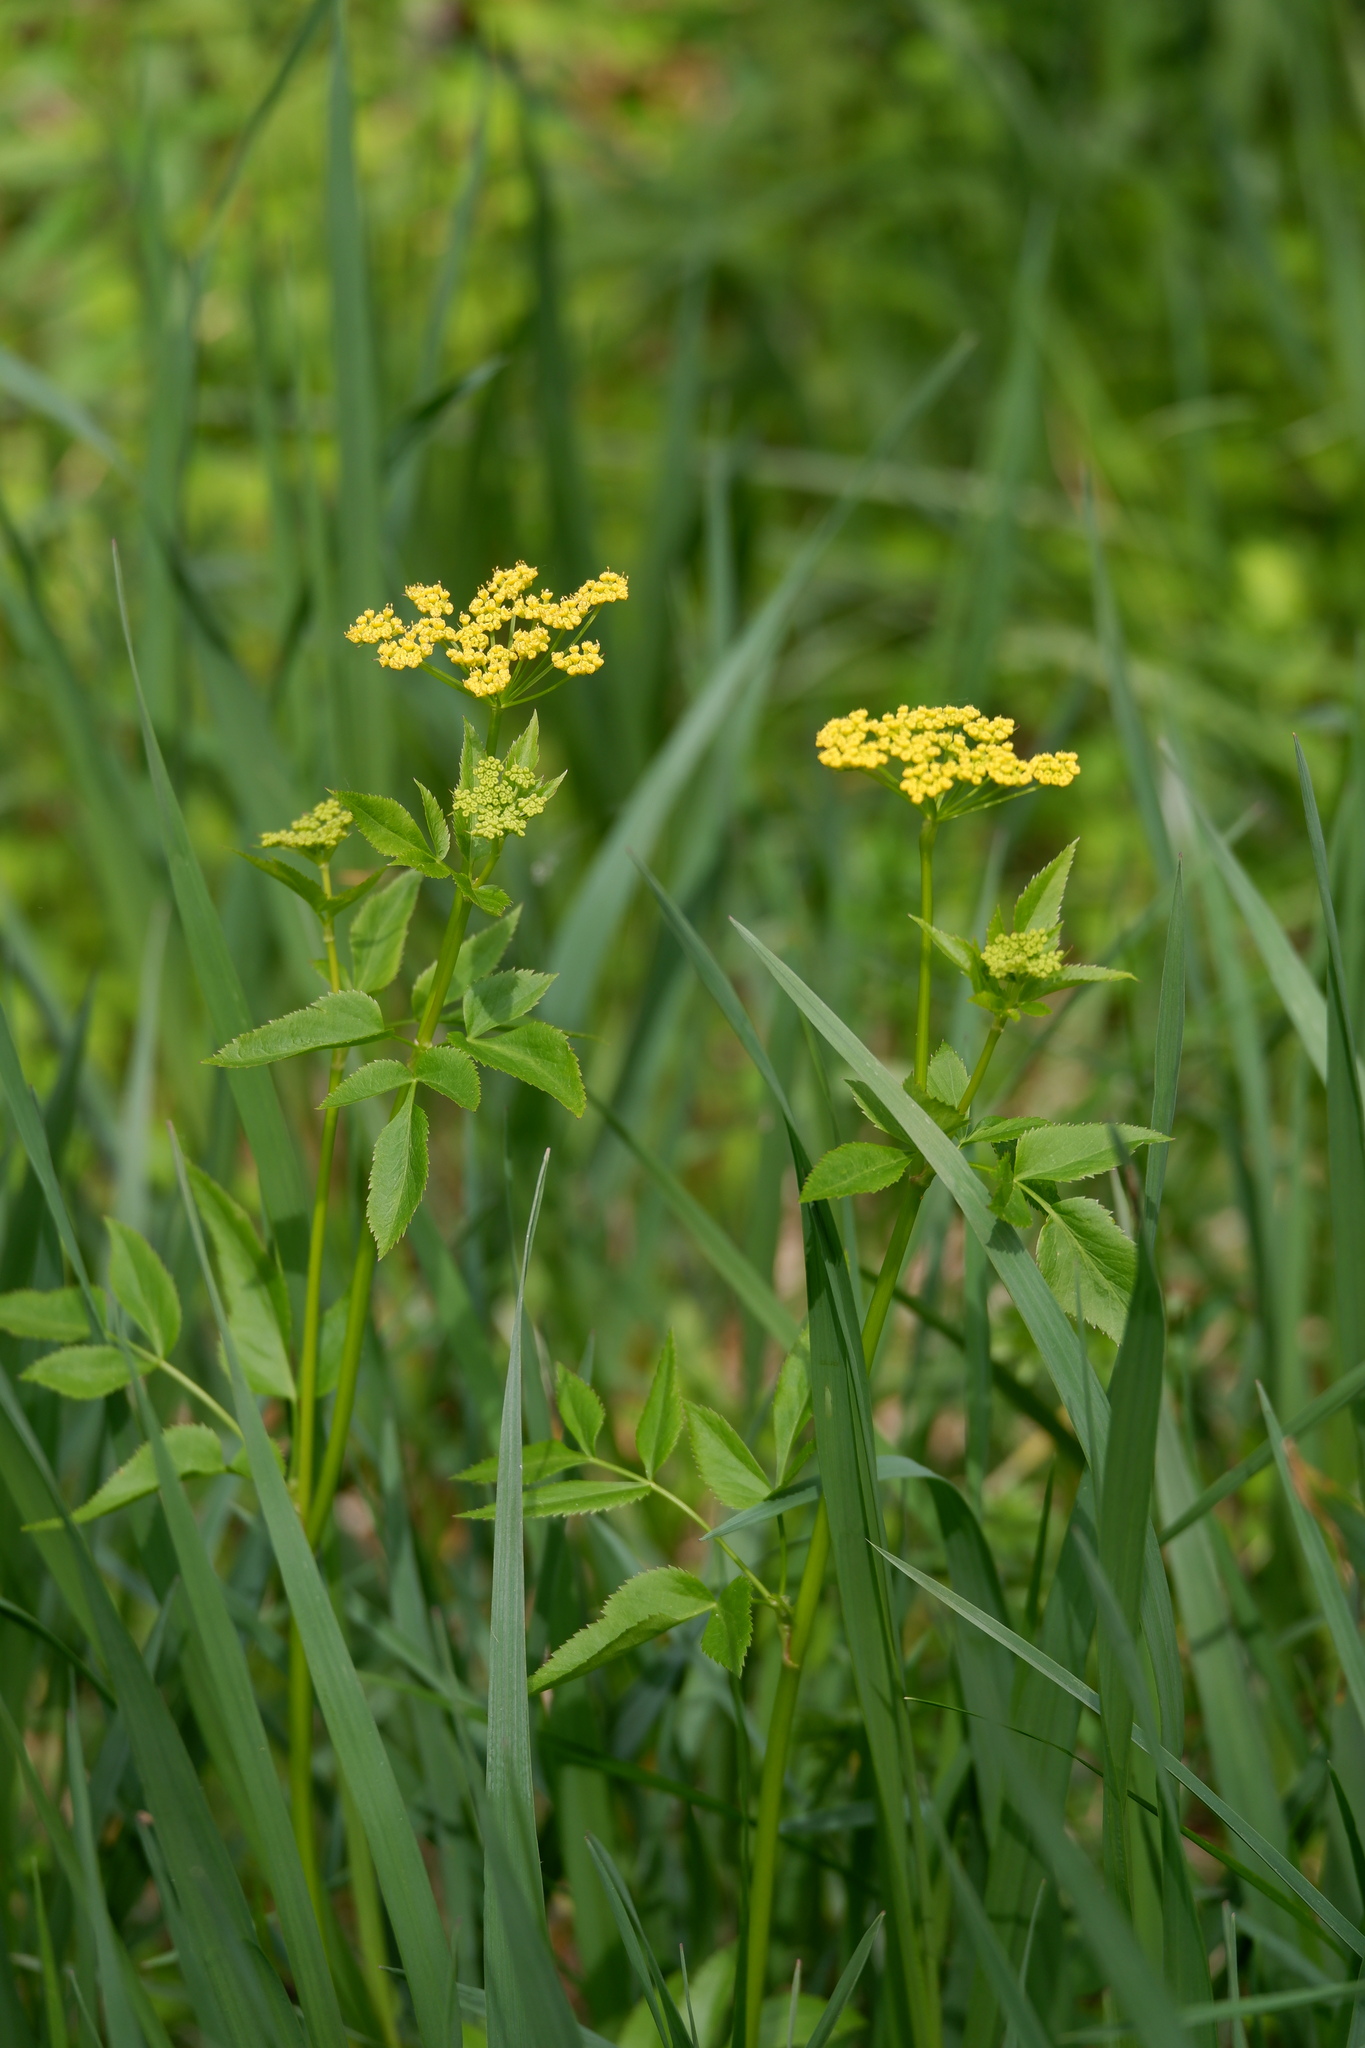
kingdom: Plantae
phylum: Tracheophyta
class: Magnoliopsida
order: Apiales
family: Apiaceae
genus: Zizia
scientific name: Zizia aurea
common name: Golden alexanders
